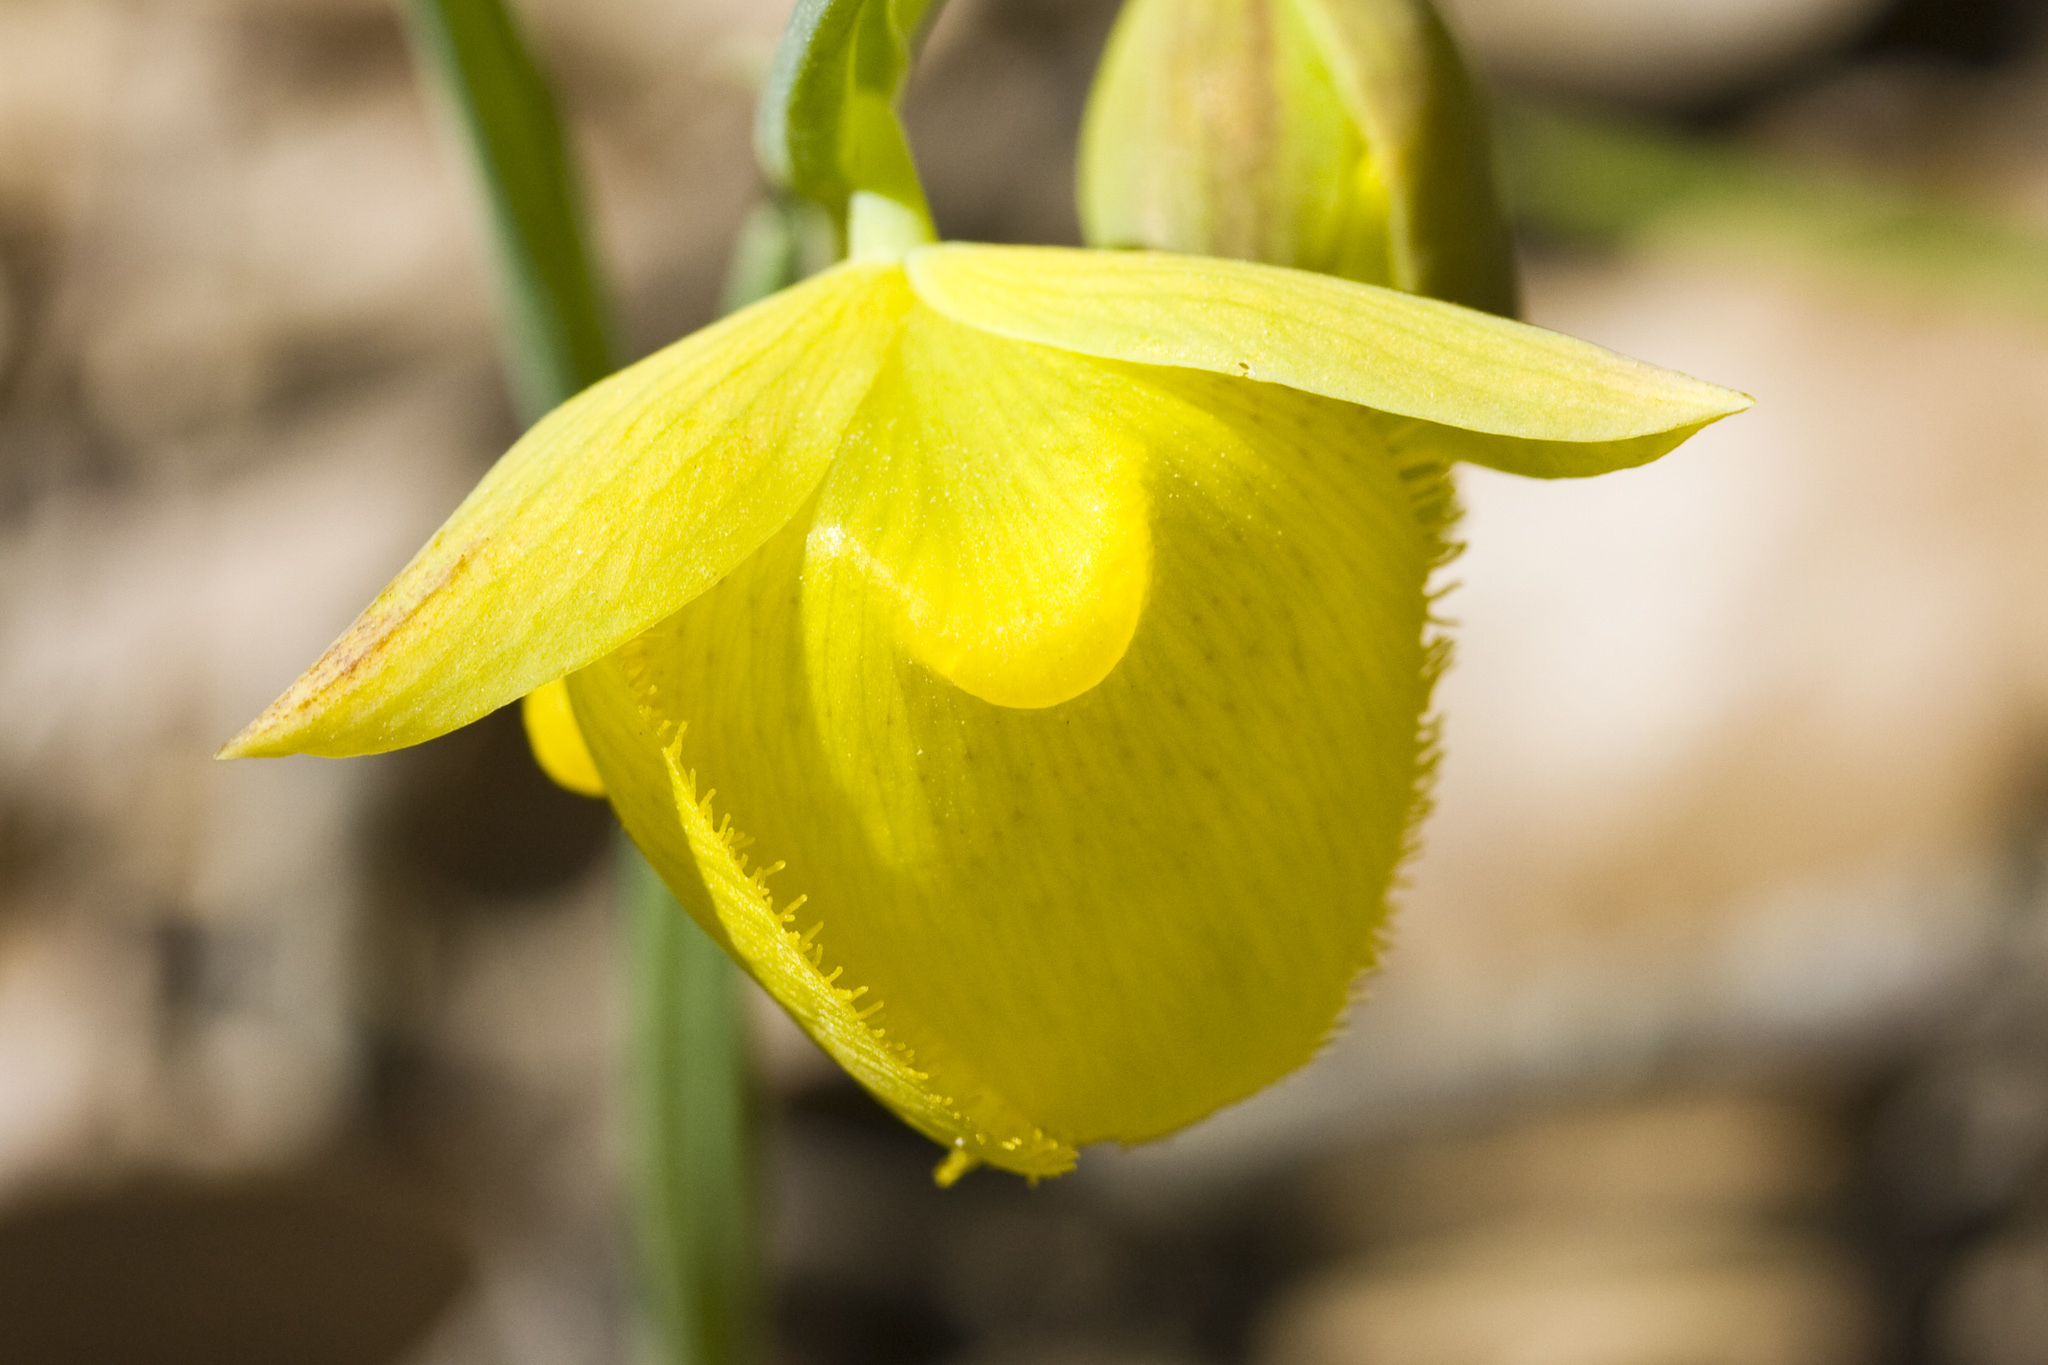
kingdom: Plantae
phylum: Tracheophyta
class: Liliopsida
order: Liliales
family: Liliaceae
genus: Calochortus
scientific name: Calochortus pulchellus
